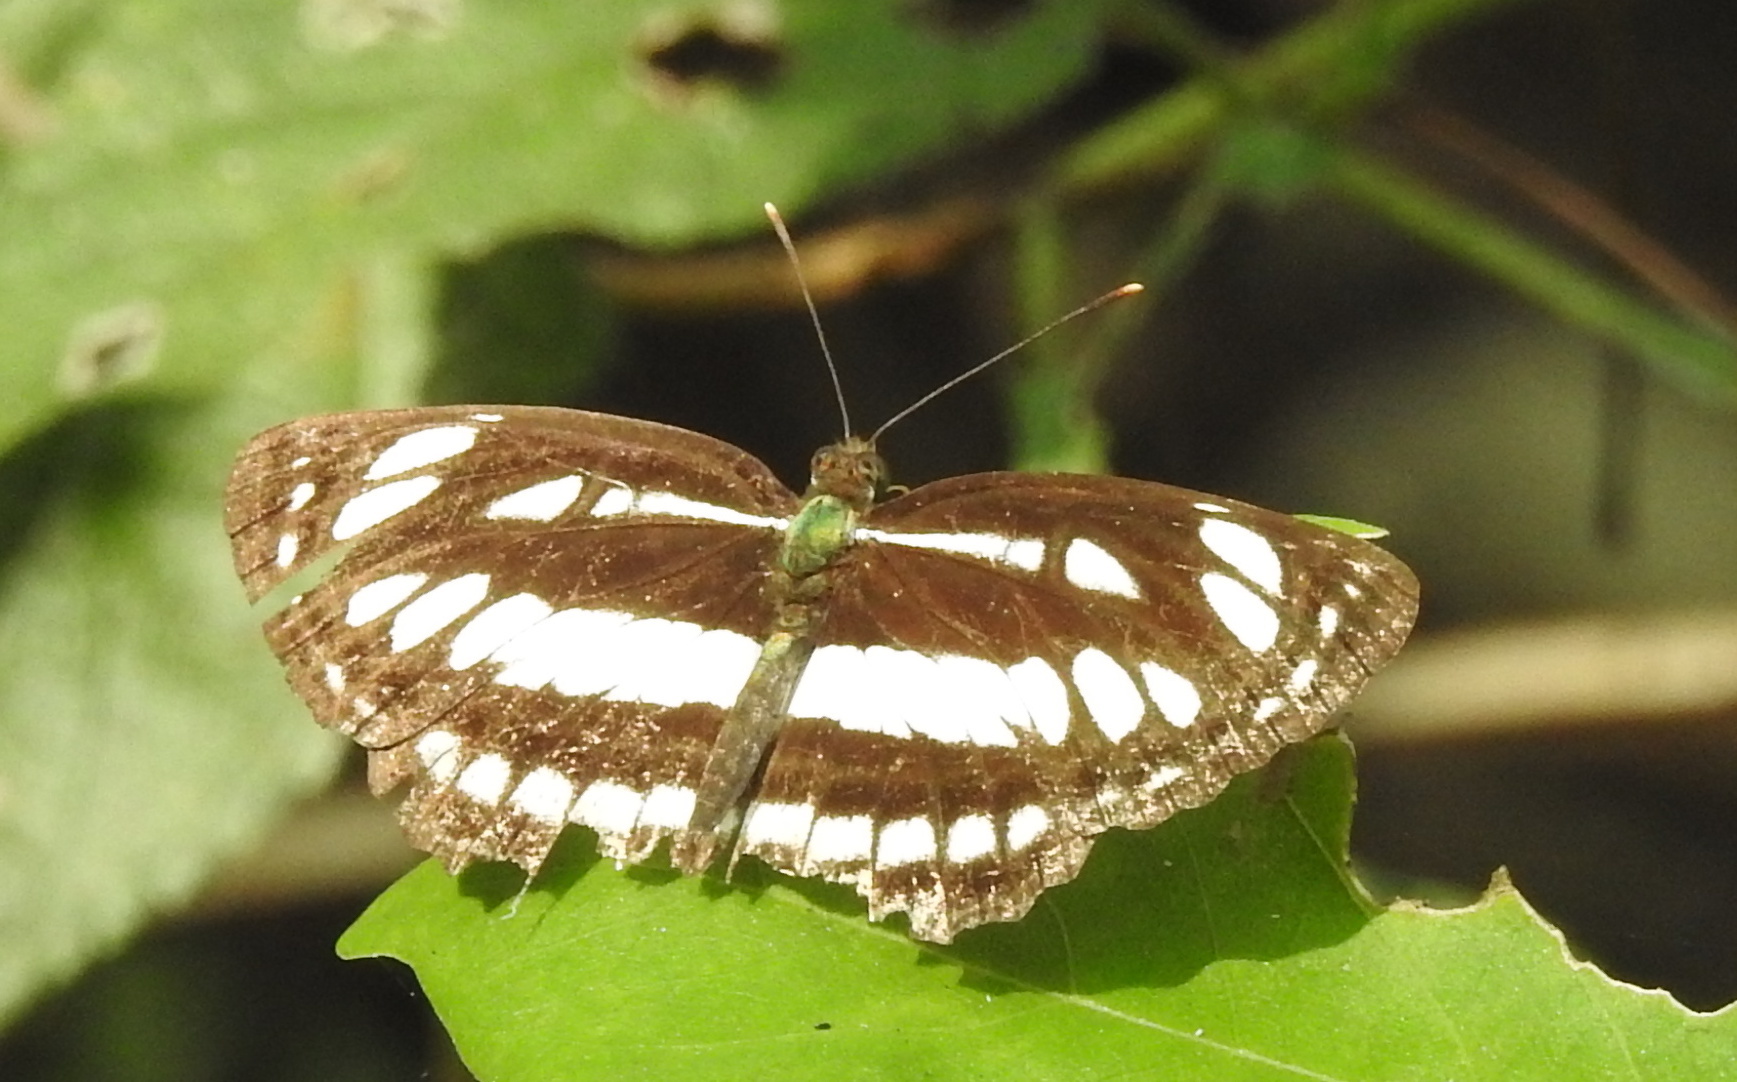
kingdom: Animalia
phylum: Arthropoda
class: Insecta
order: Lepidoptera
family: Nymphalidae
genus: Neptis
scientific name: Neptis hylas
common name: Common sailer
